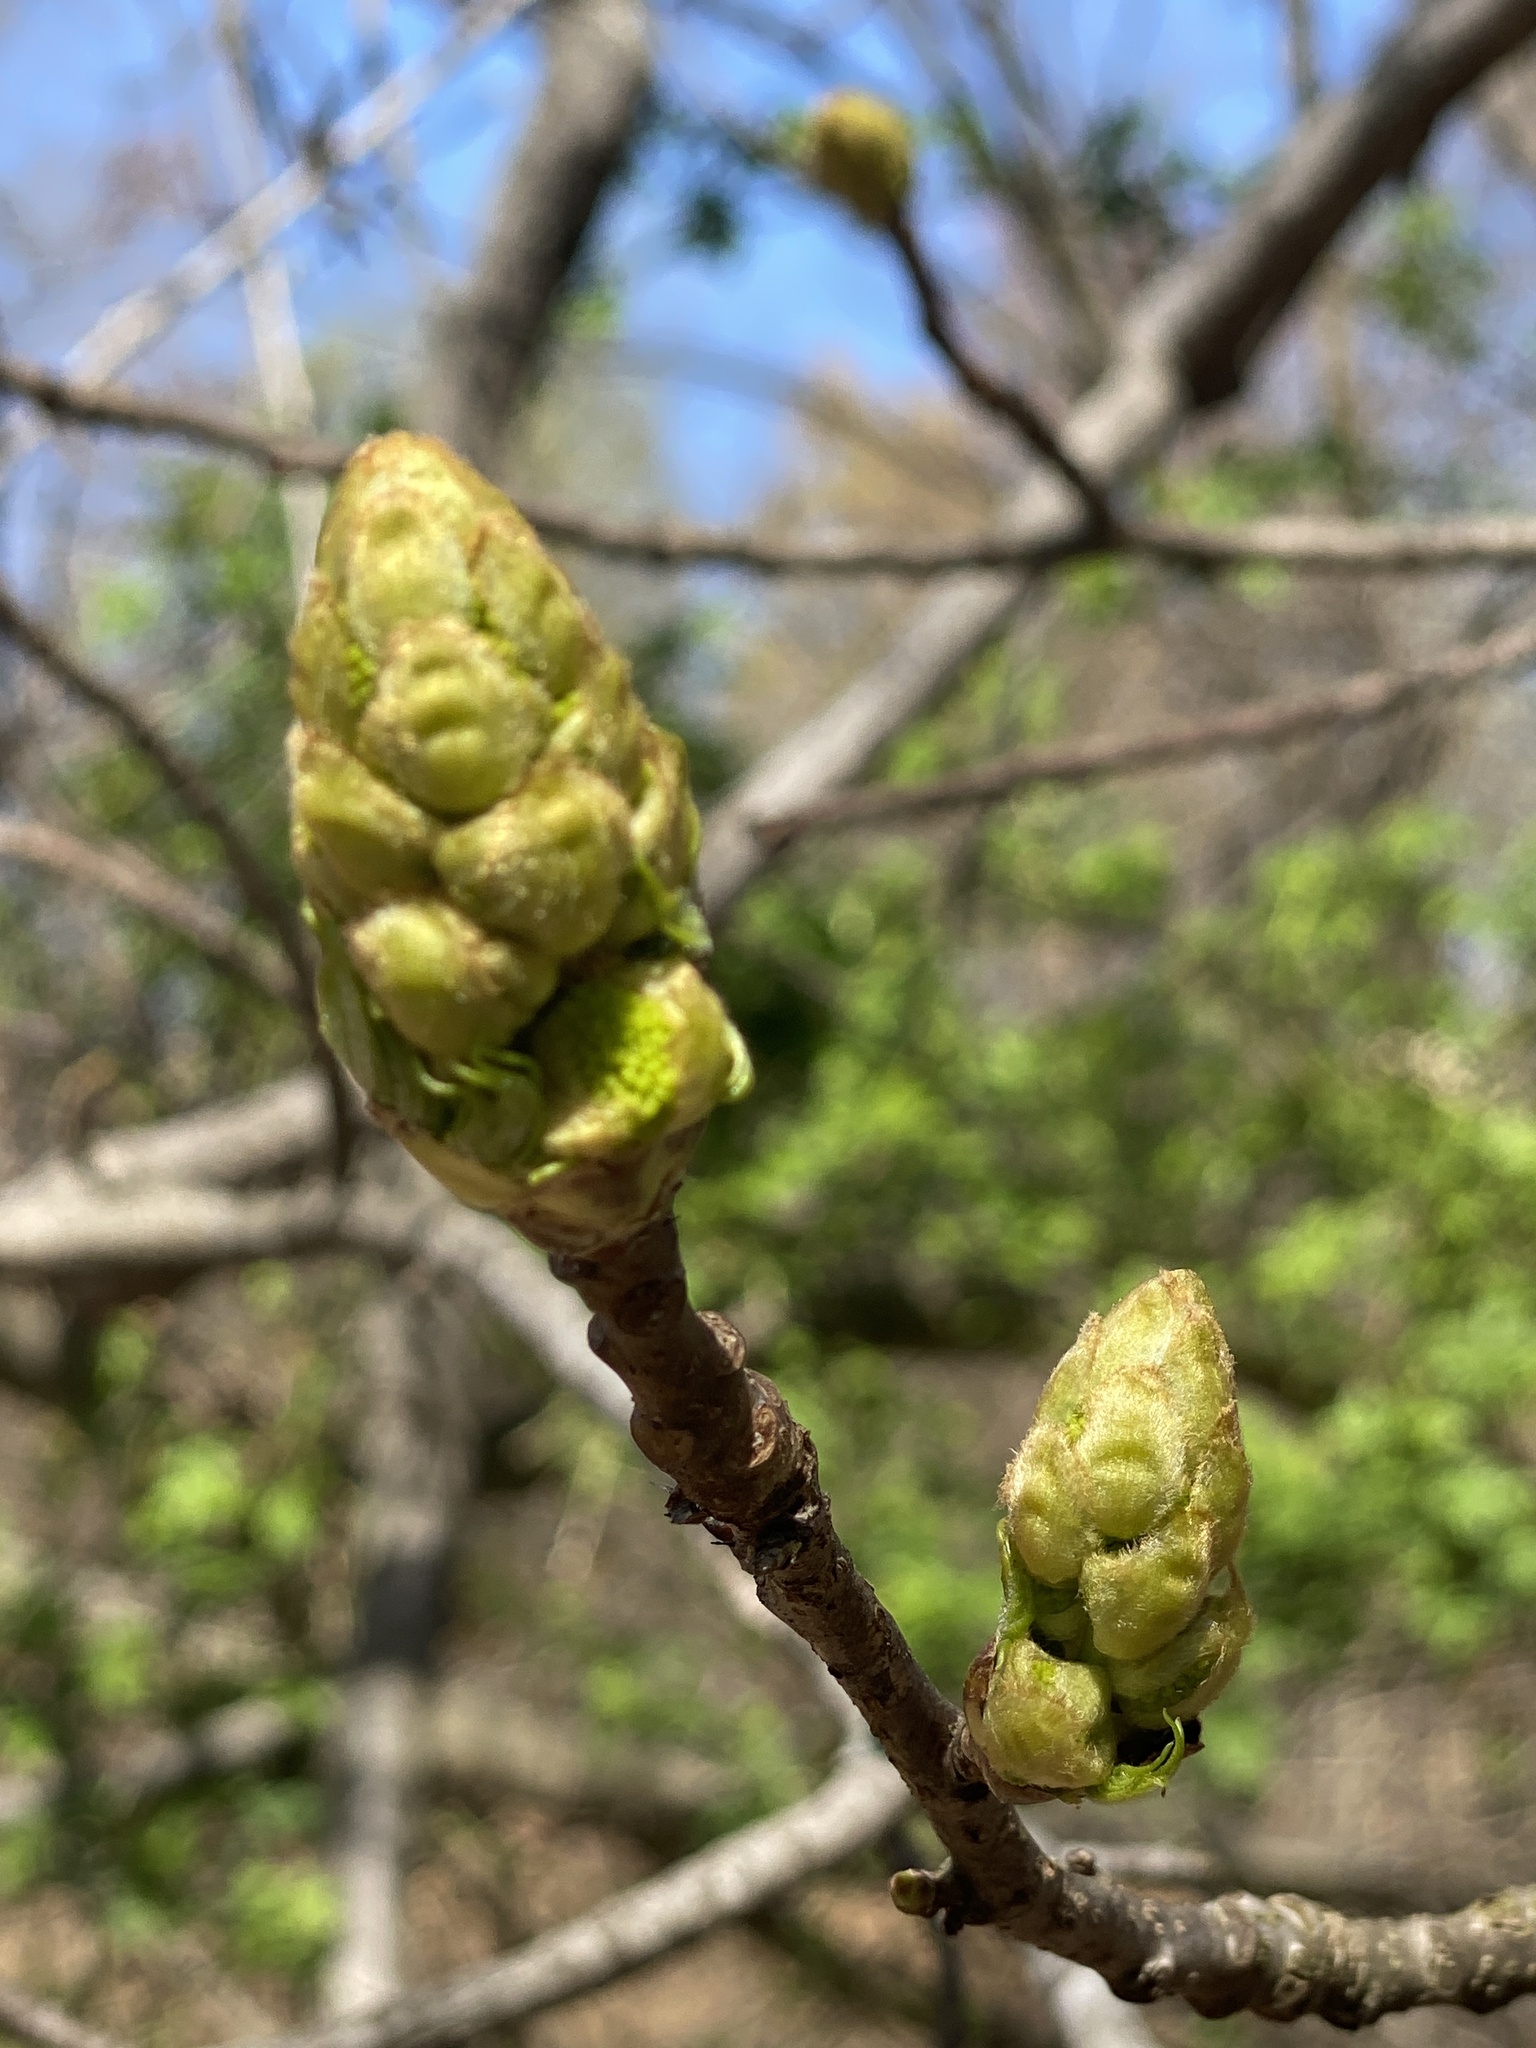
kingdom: Plantae
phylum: Tracheophyta
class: Magnoliopsida
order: Sapindales
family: Sapindaceae
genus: Acer
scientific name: Acer platanoides
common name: Norway maple
